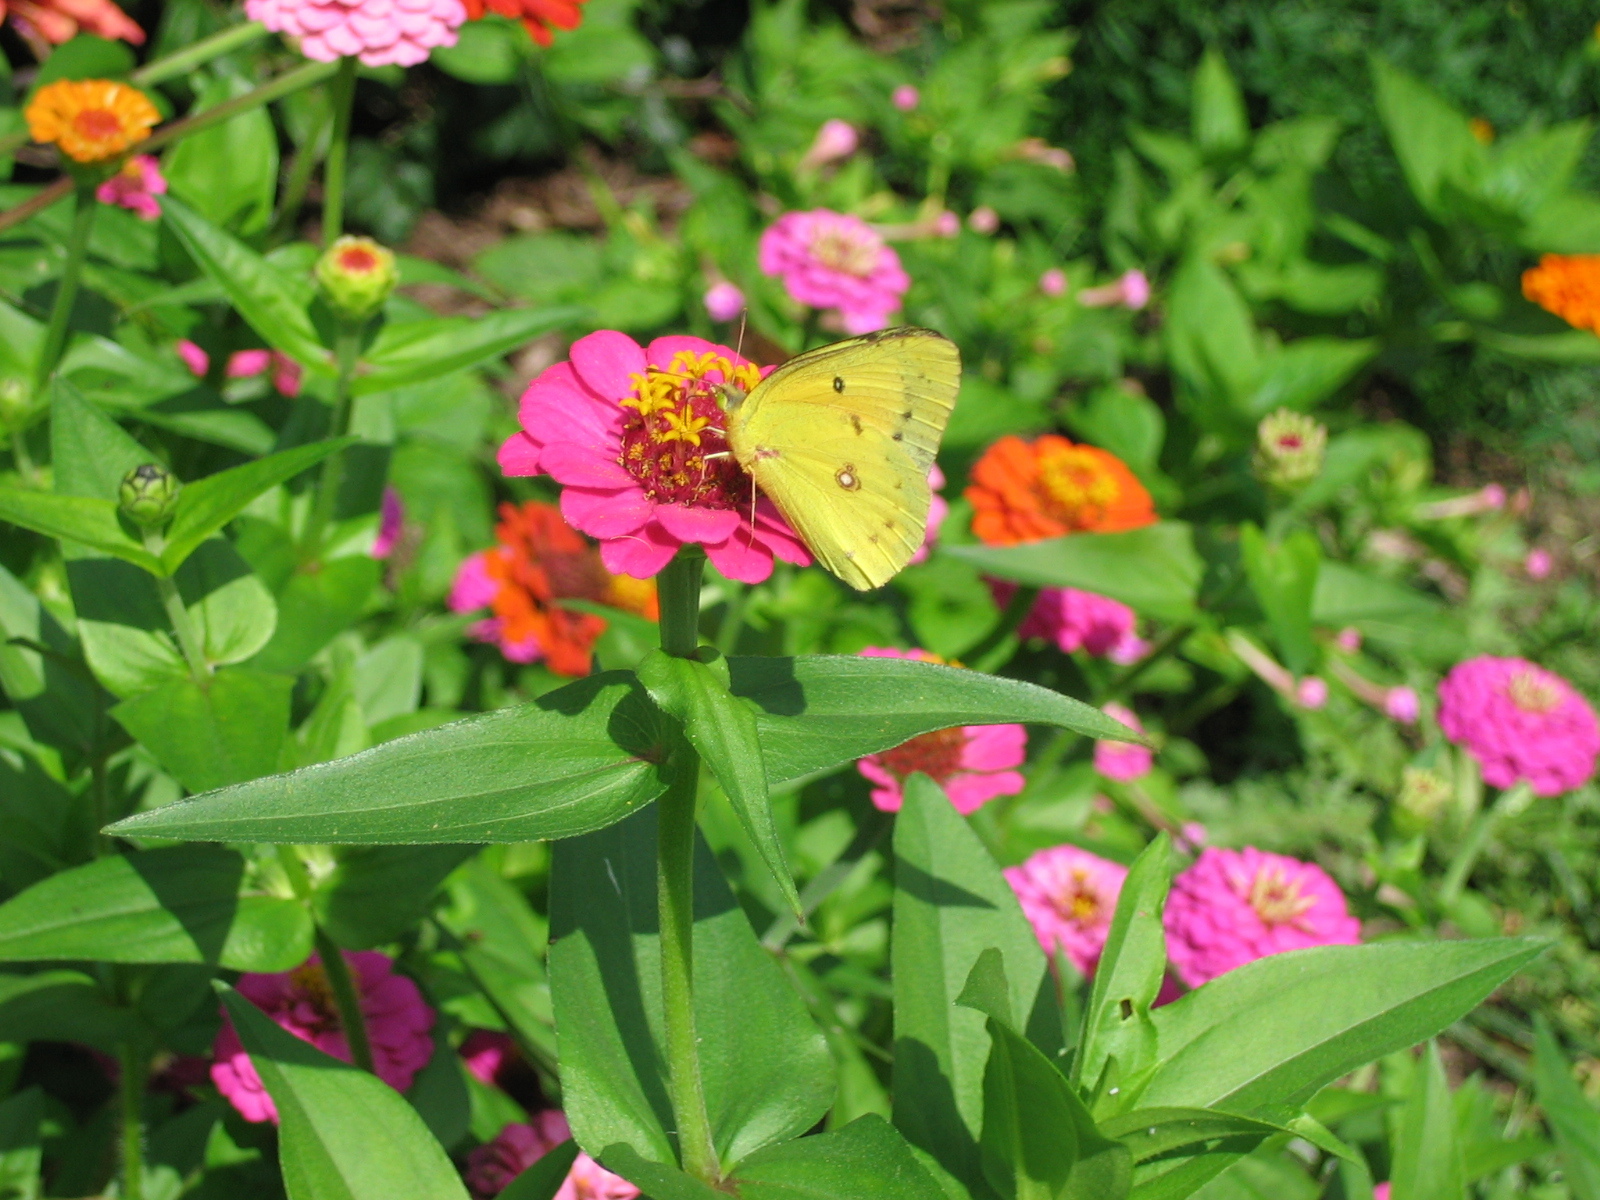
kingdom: Animalia
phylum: Arthropoda
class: Insecta
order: Lepidoptera
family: Pieridae
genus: Colias
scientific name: Colias eurytheme
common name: Alfalfa butterfly
